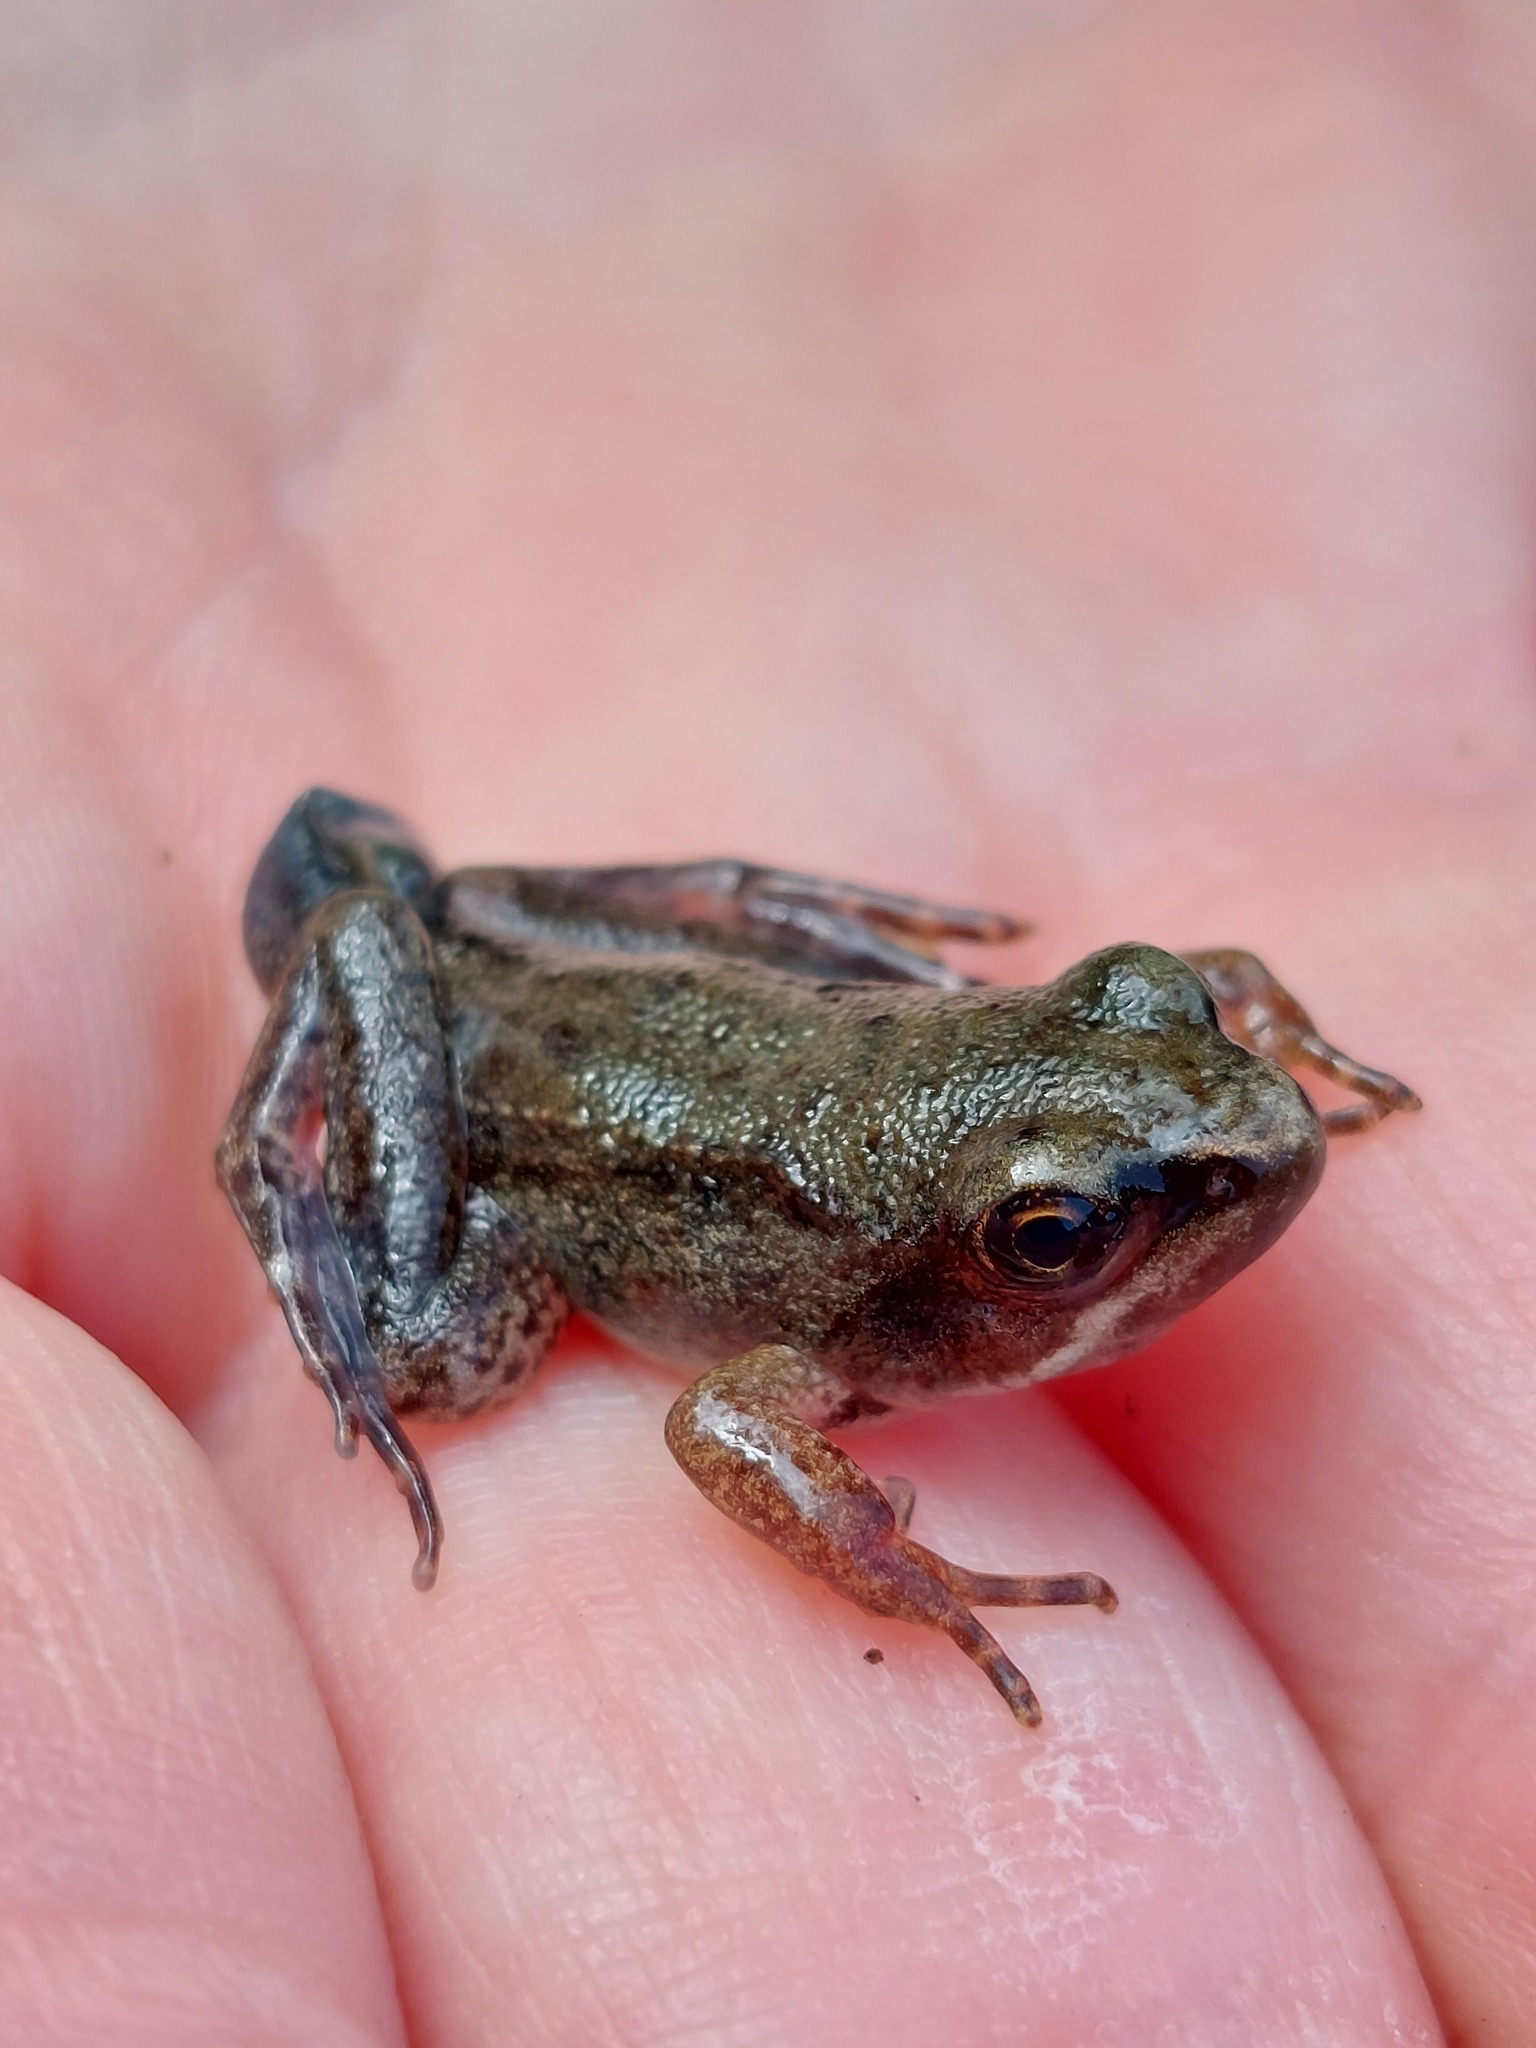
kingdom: Animalia
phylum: Chordata
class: Amphibia
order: Anura
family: Ranidae
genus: Rana
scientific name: Rana dalmatina
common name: Agile frog
